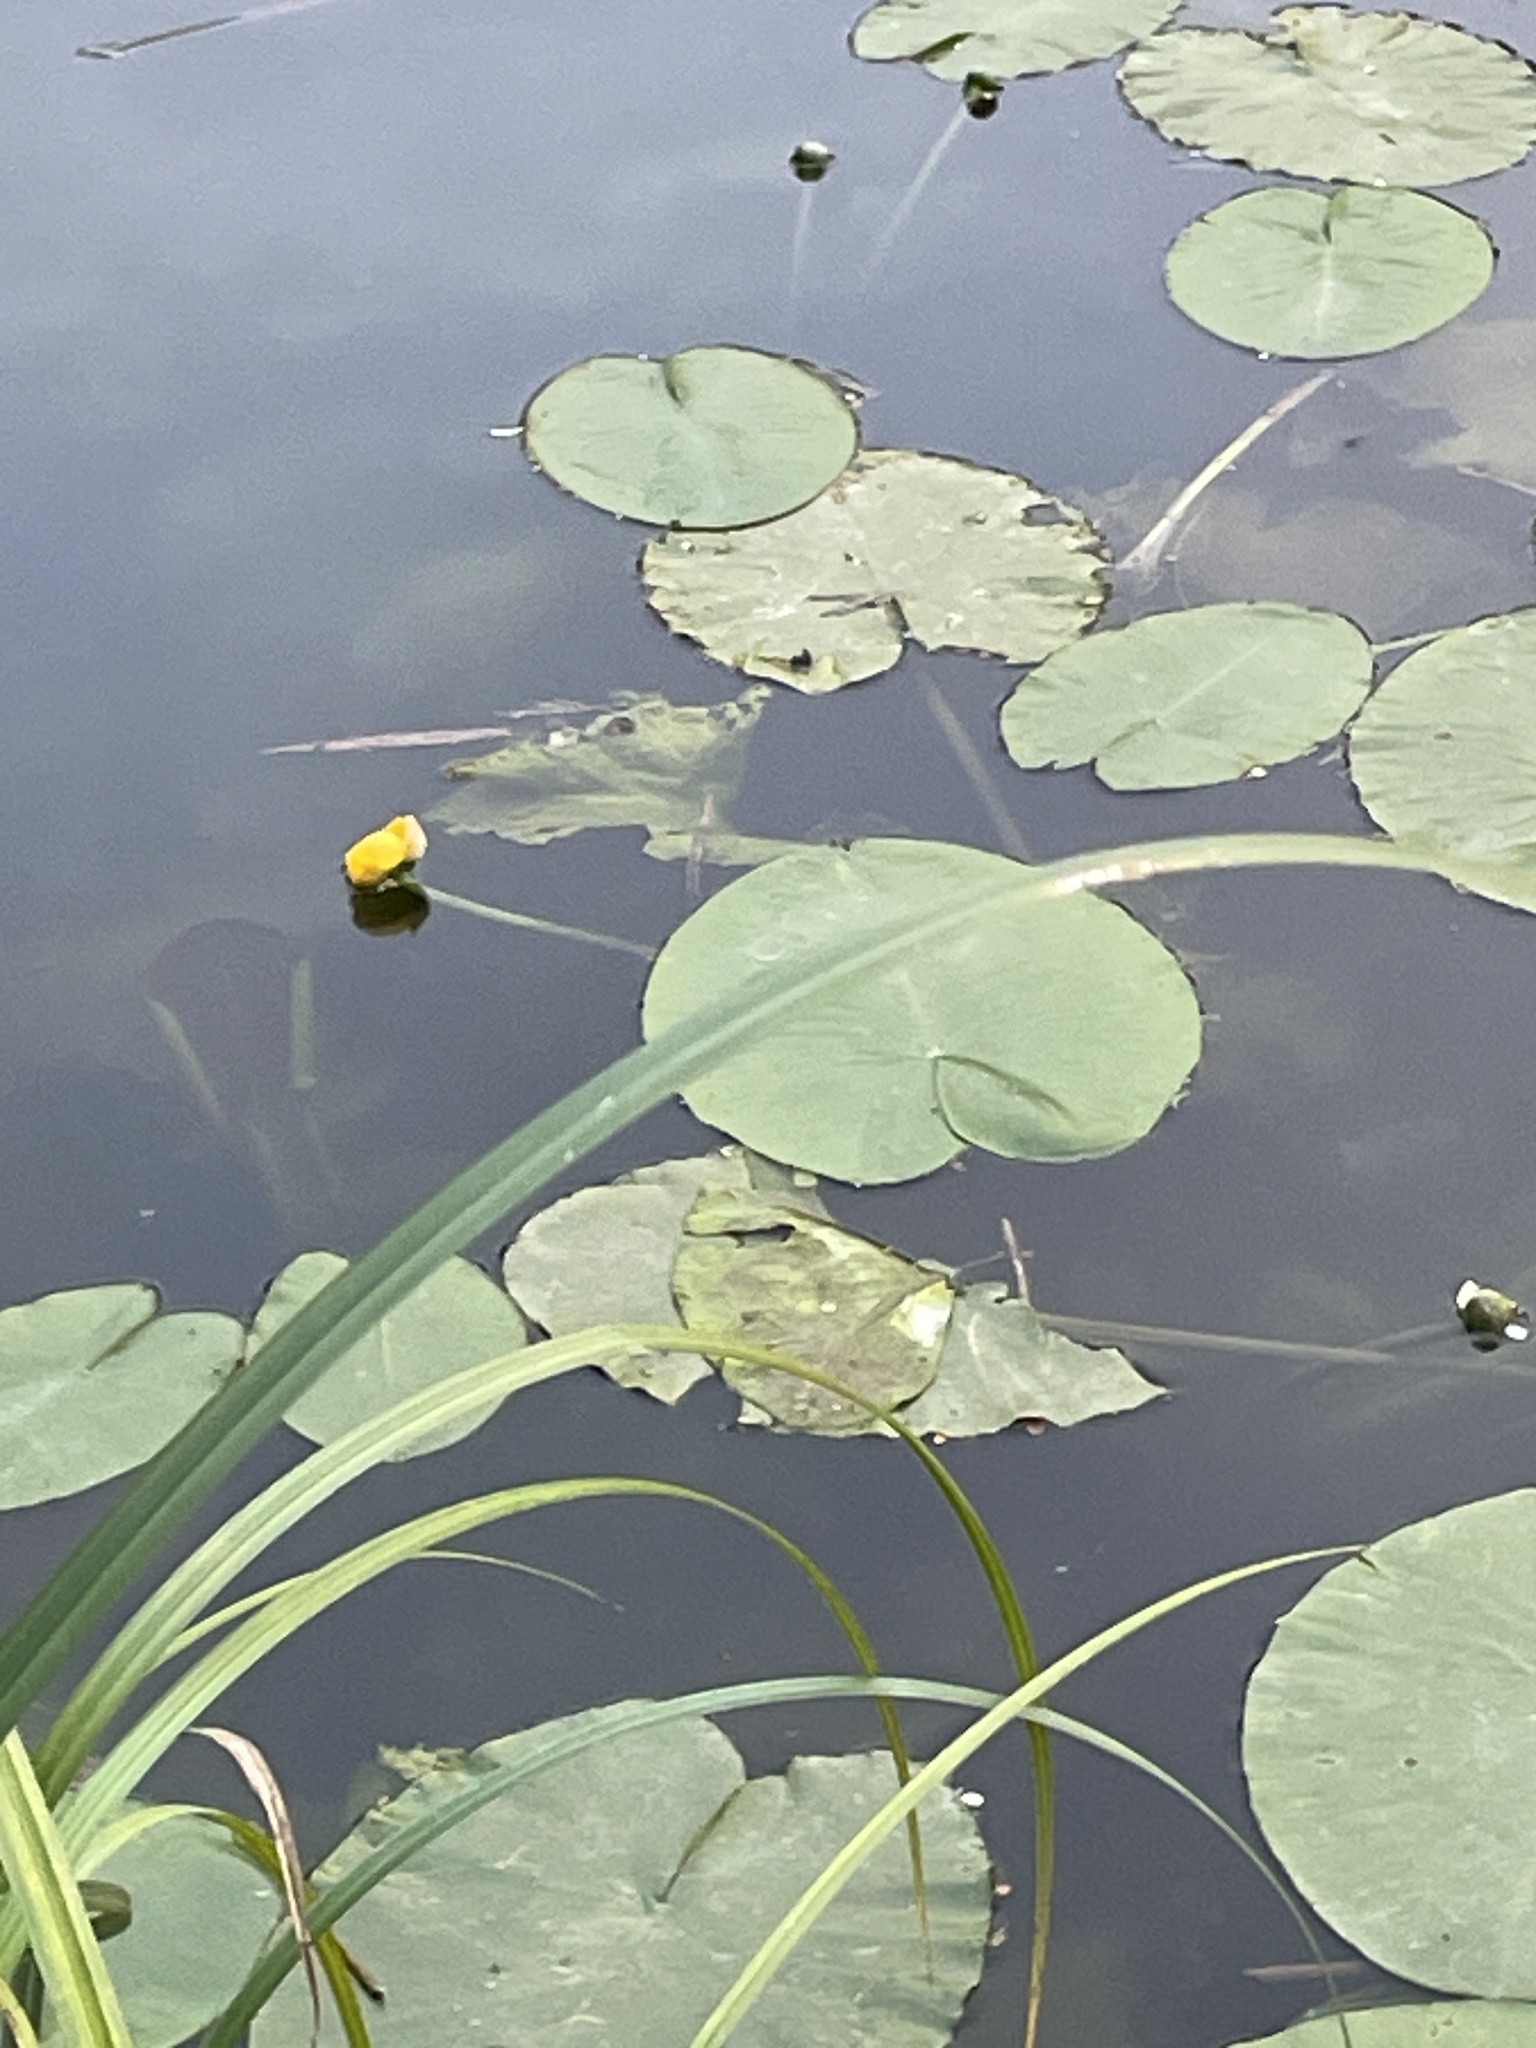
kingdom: Plantae
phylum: Tracheophyta
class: Magnoliopsida
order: Nymphaeales
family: Nymphaeaceae
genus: Nuphar
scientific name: Nuphar lutea
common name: Yellow water-lily
